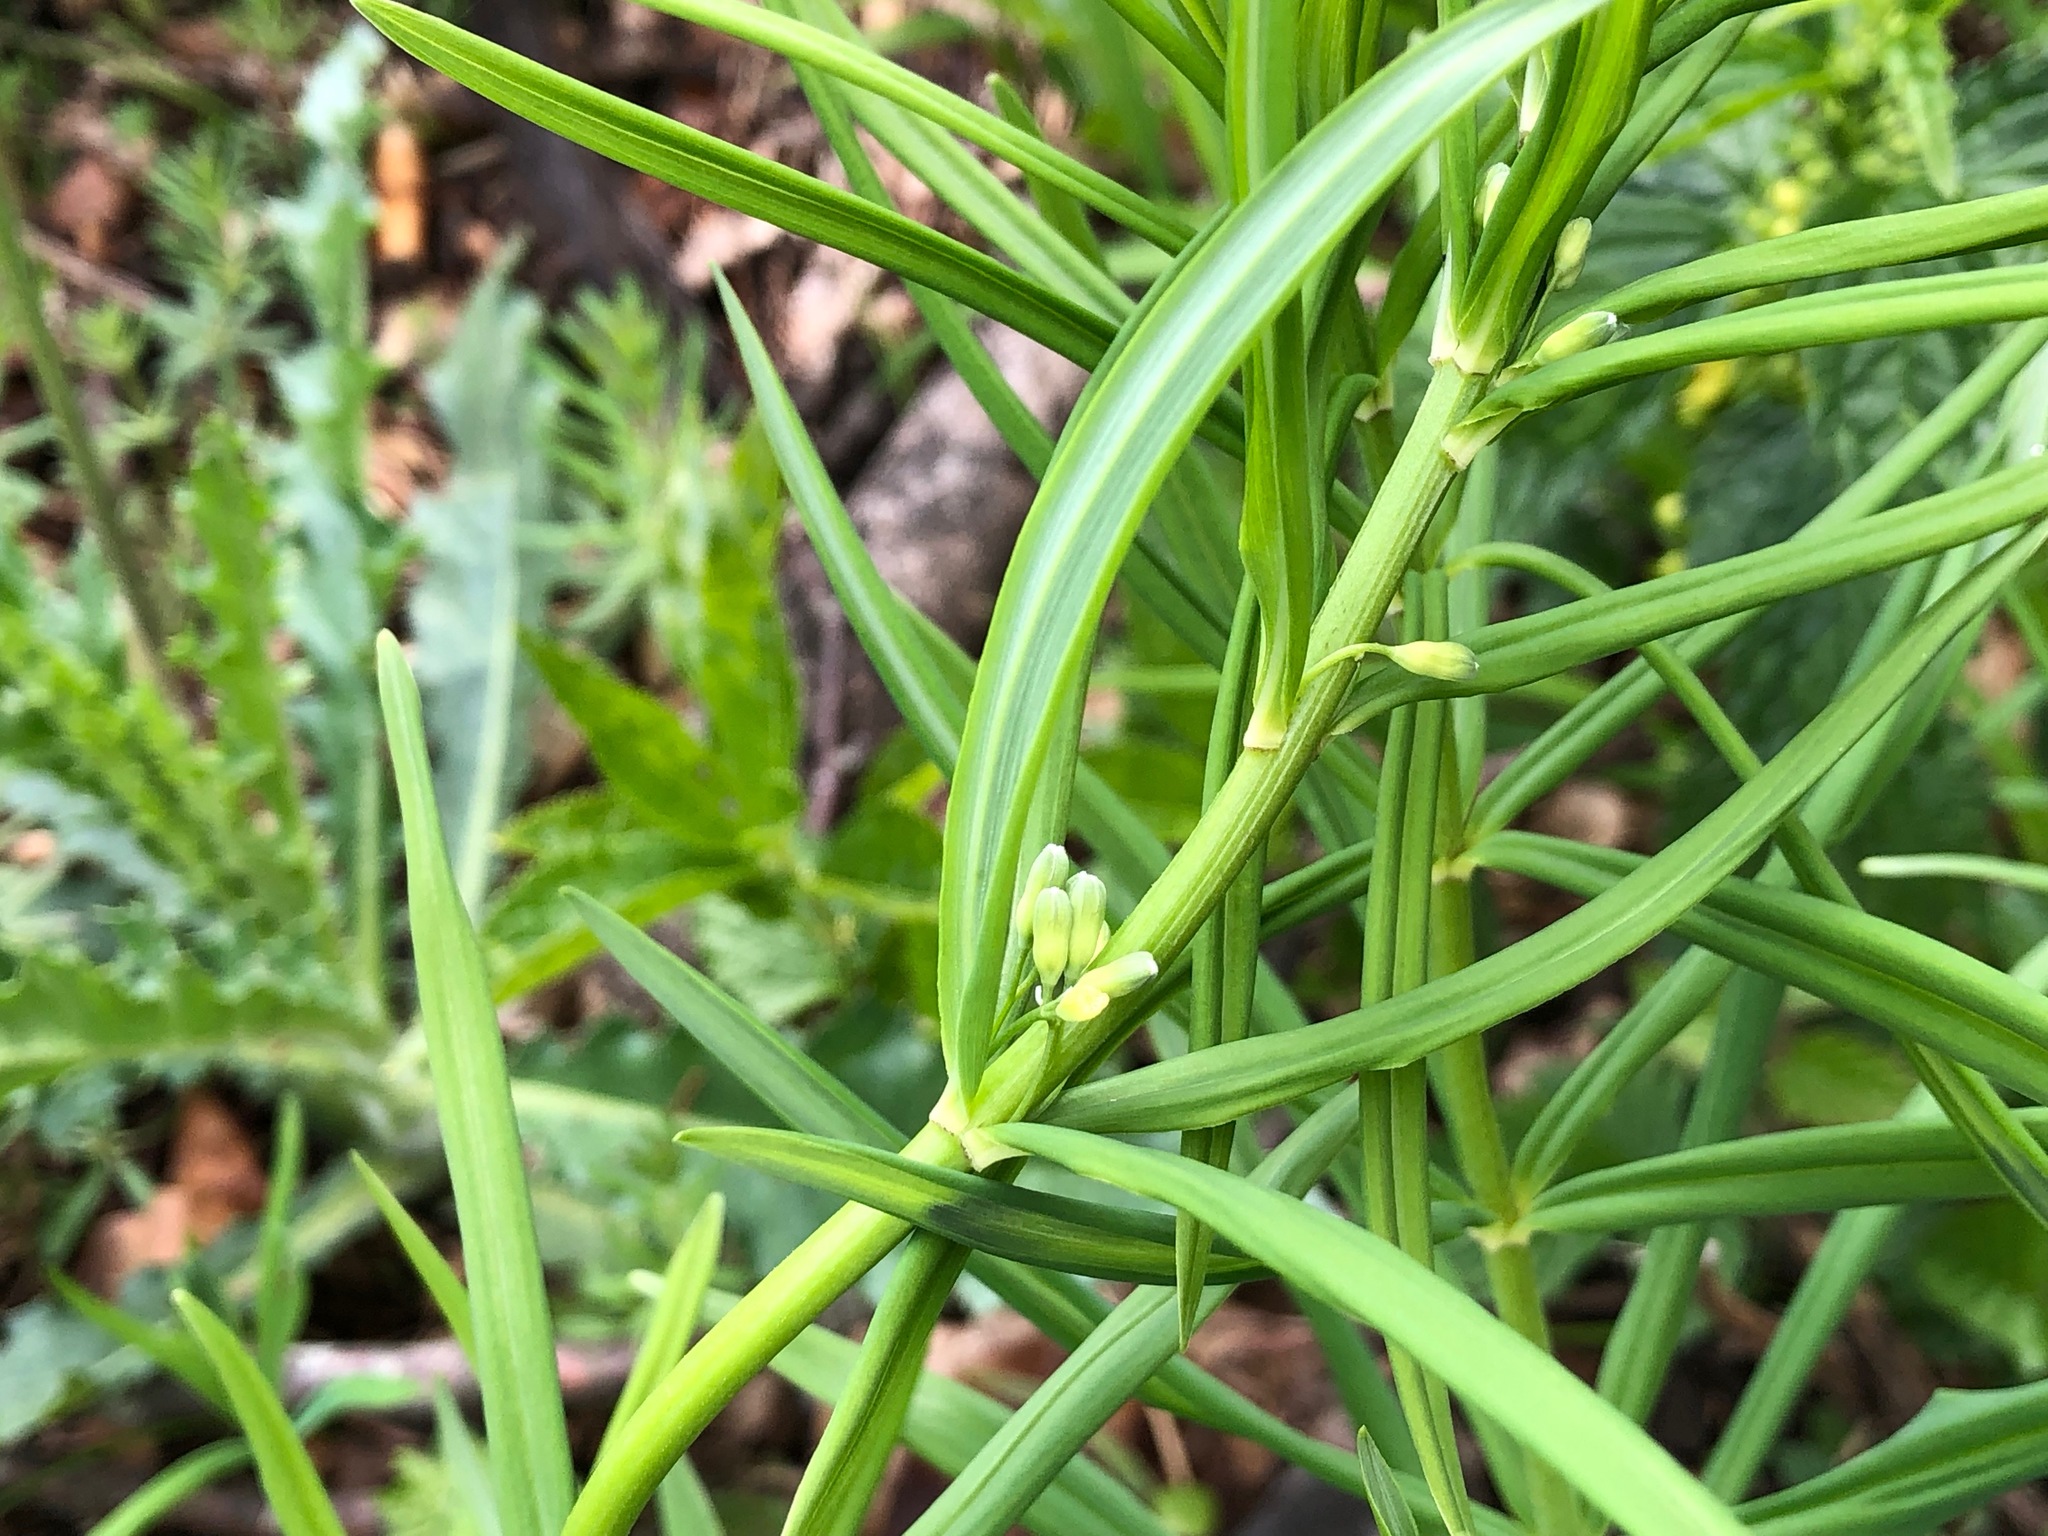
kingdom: Plantae
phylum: Tracheophyta
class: Liliopsida
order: Asparagales
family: Asparagaceae
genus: Polygonatum
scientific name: Polygonatum verticillatum
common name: Whorled solomon's-seal
